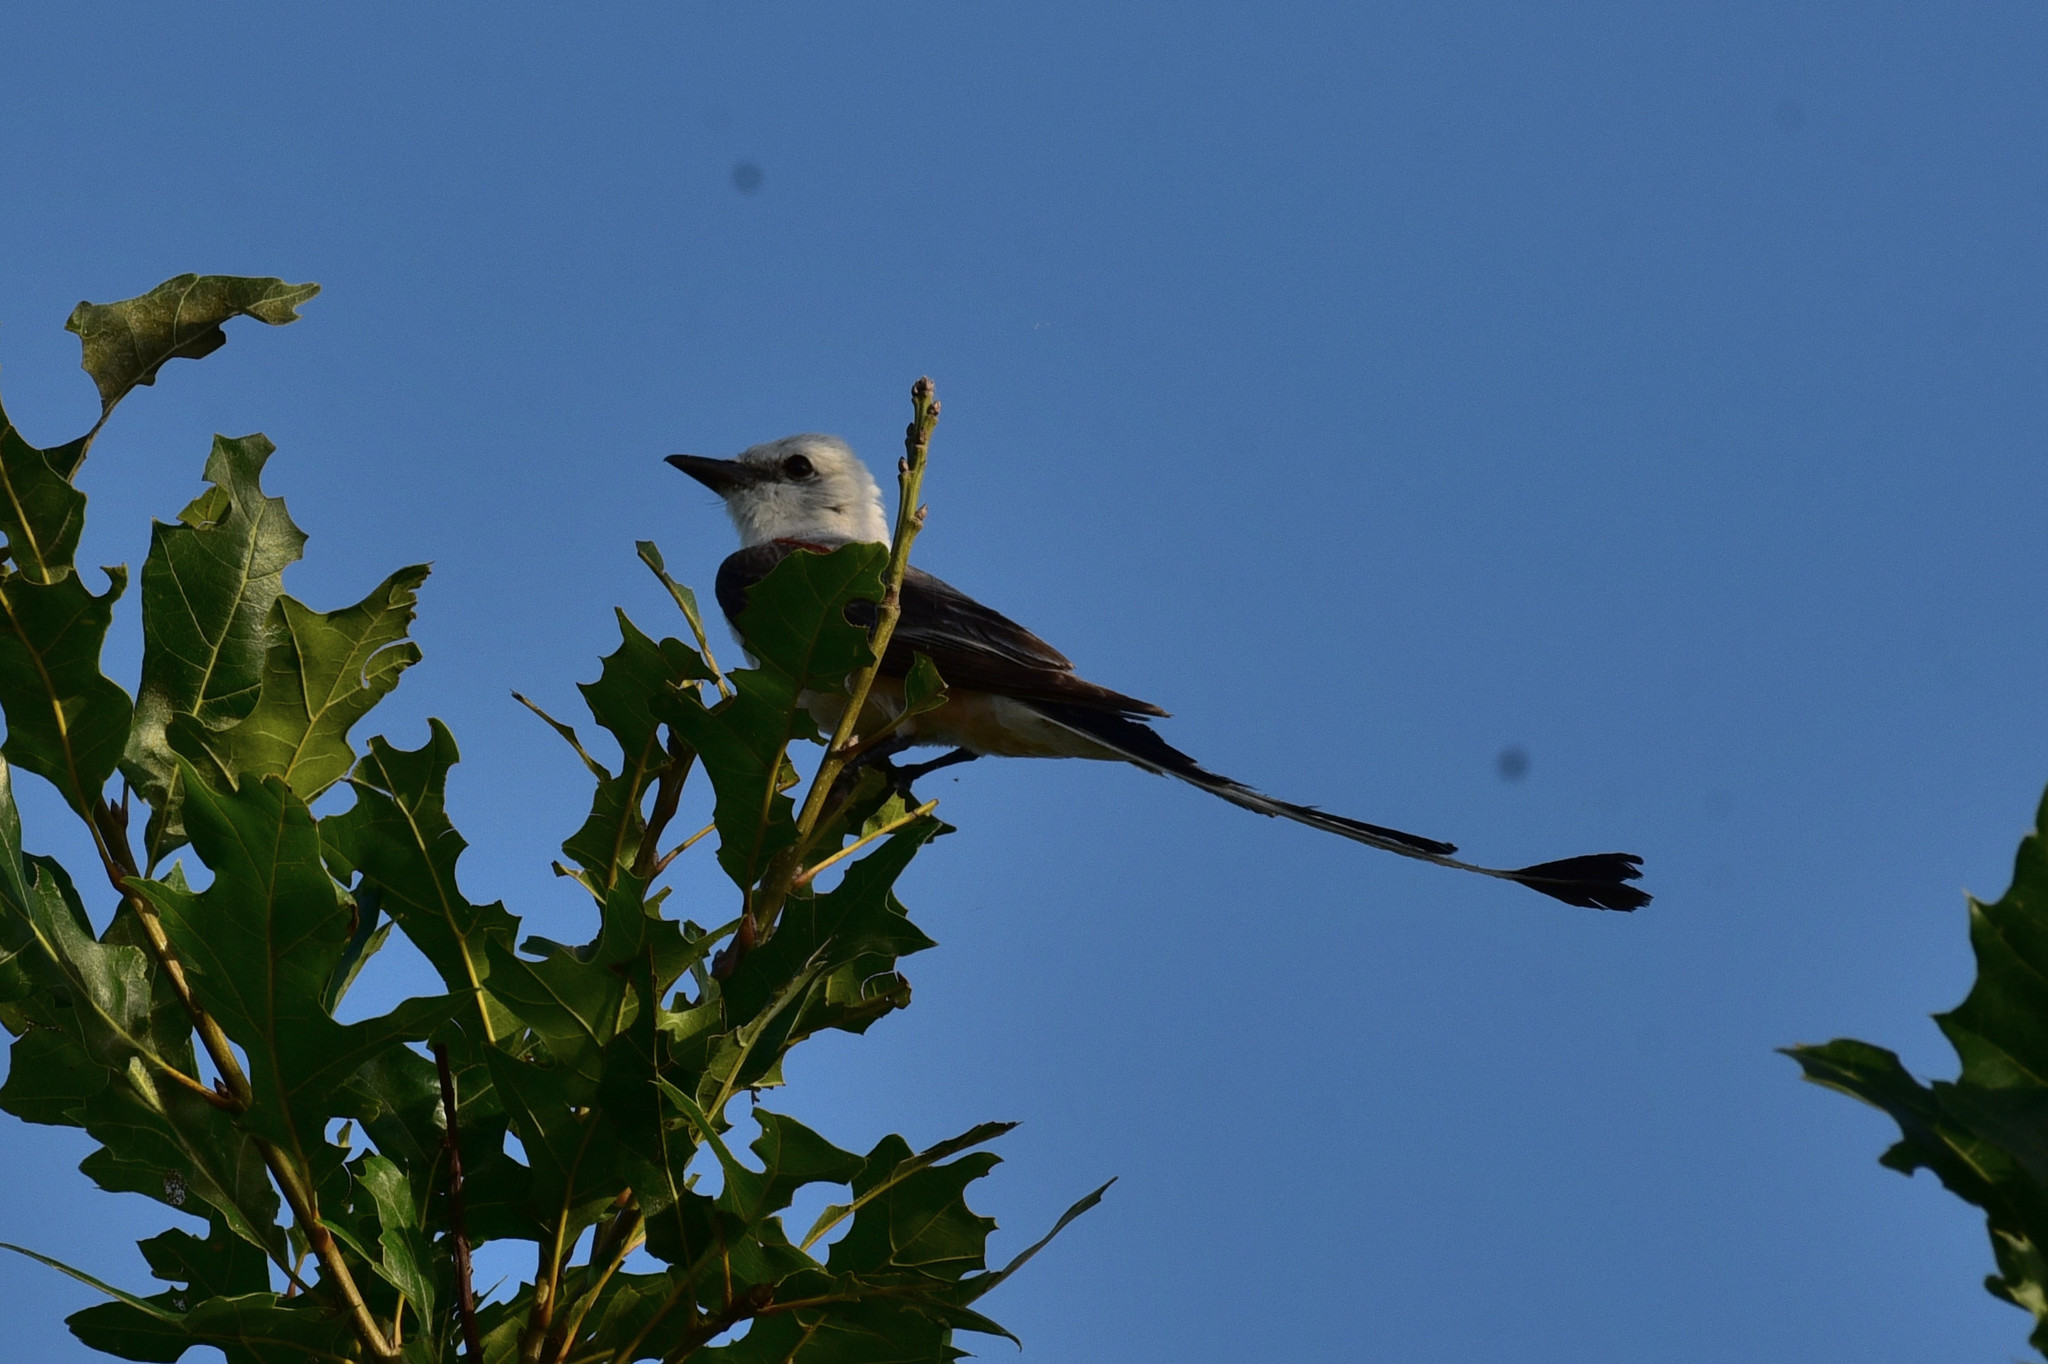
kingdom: Animalia
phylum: Chordata
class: Aves
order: Passeriformes
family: Tyrannidae
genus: Tyrannus
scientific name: Tyrannus forficatus
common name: Scissor-tailed flycatcher
